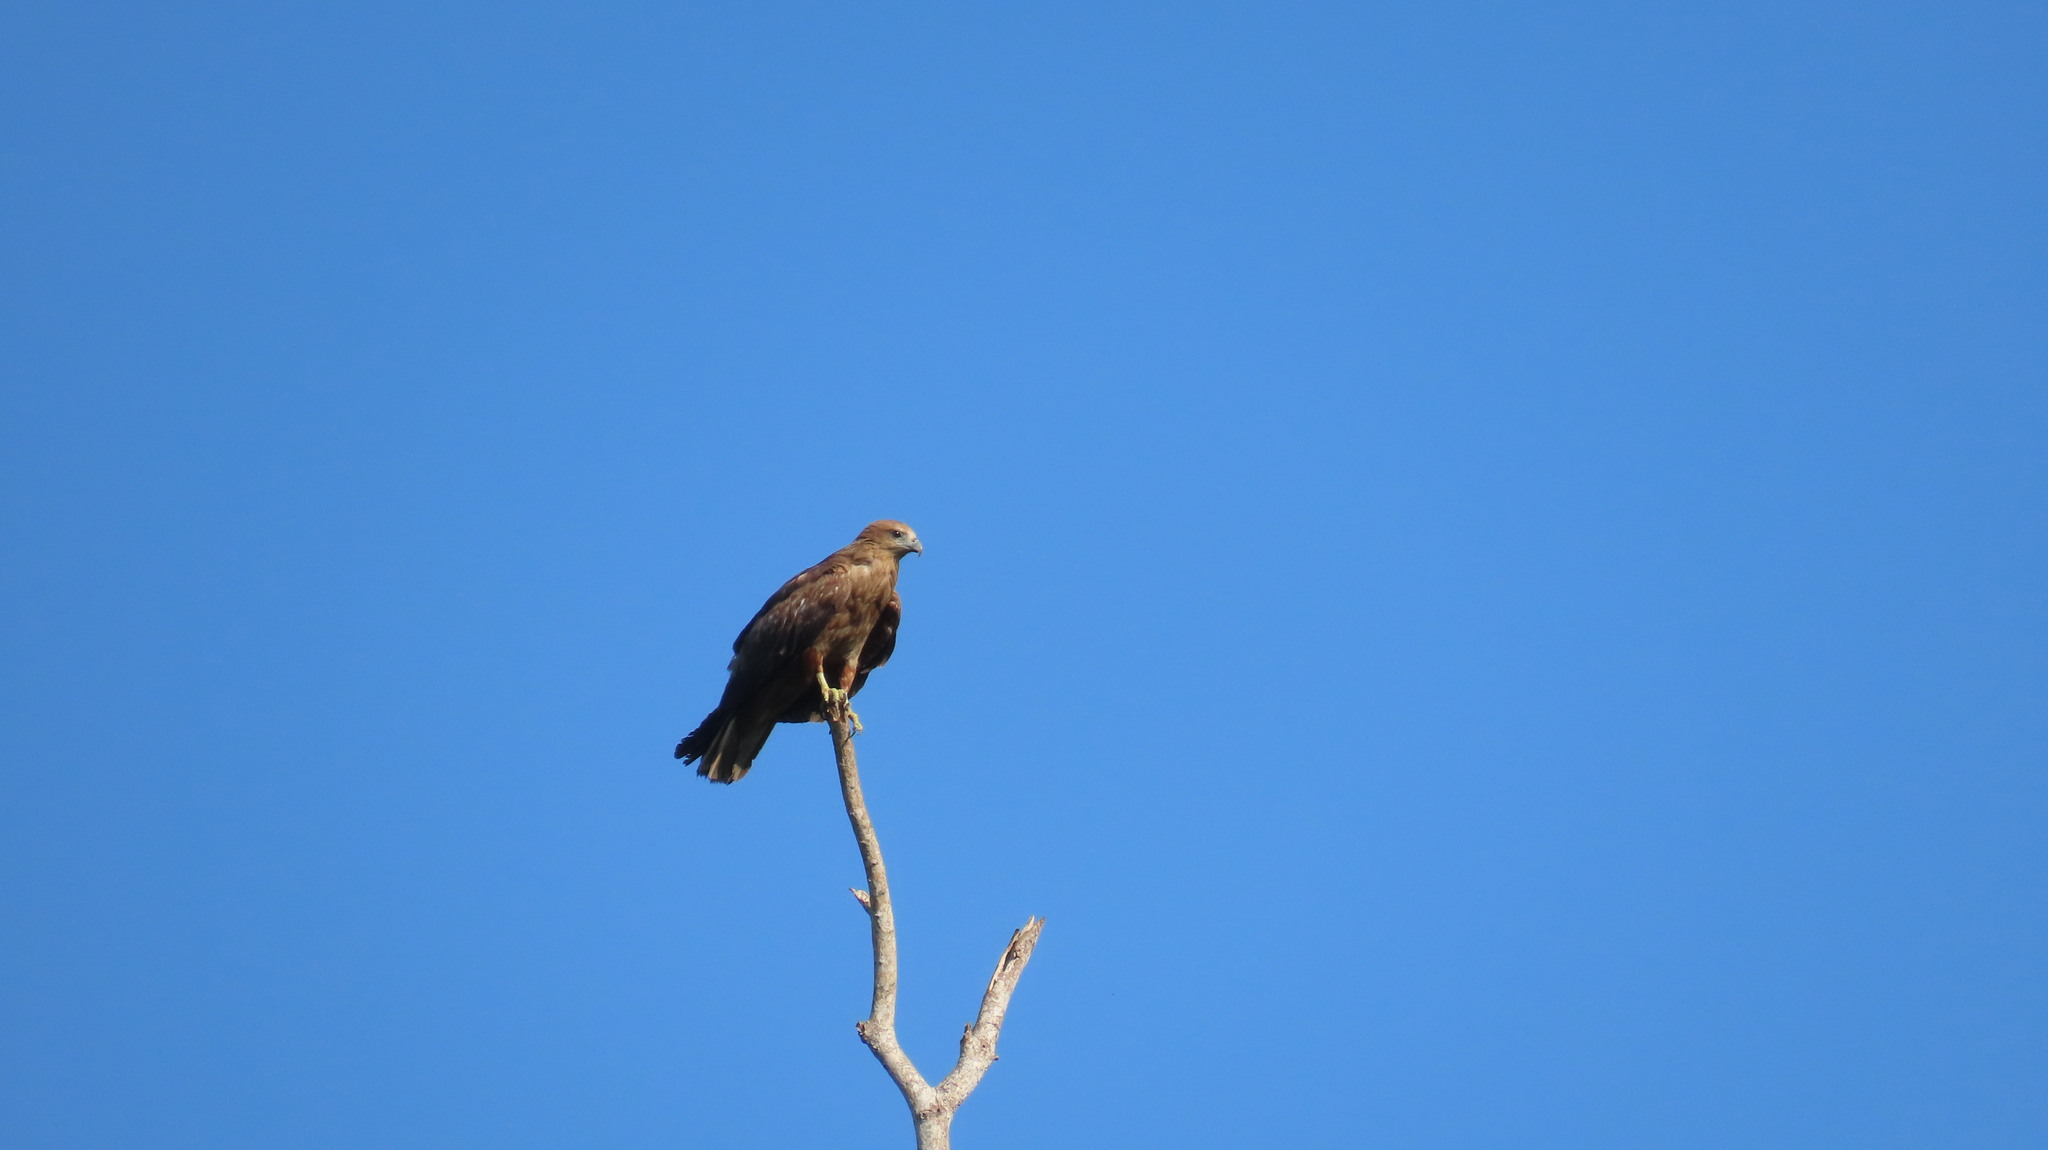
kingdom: Animalia
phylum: Chordata
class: Aves
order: Accipitriformes
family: Accipitridae
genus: Milvus
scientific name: Milvus migrans
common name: Black kite
